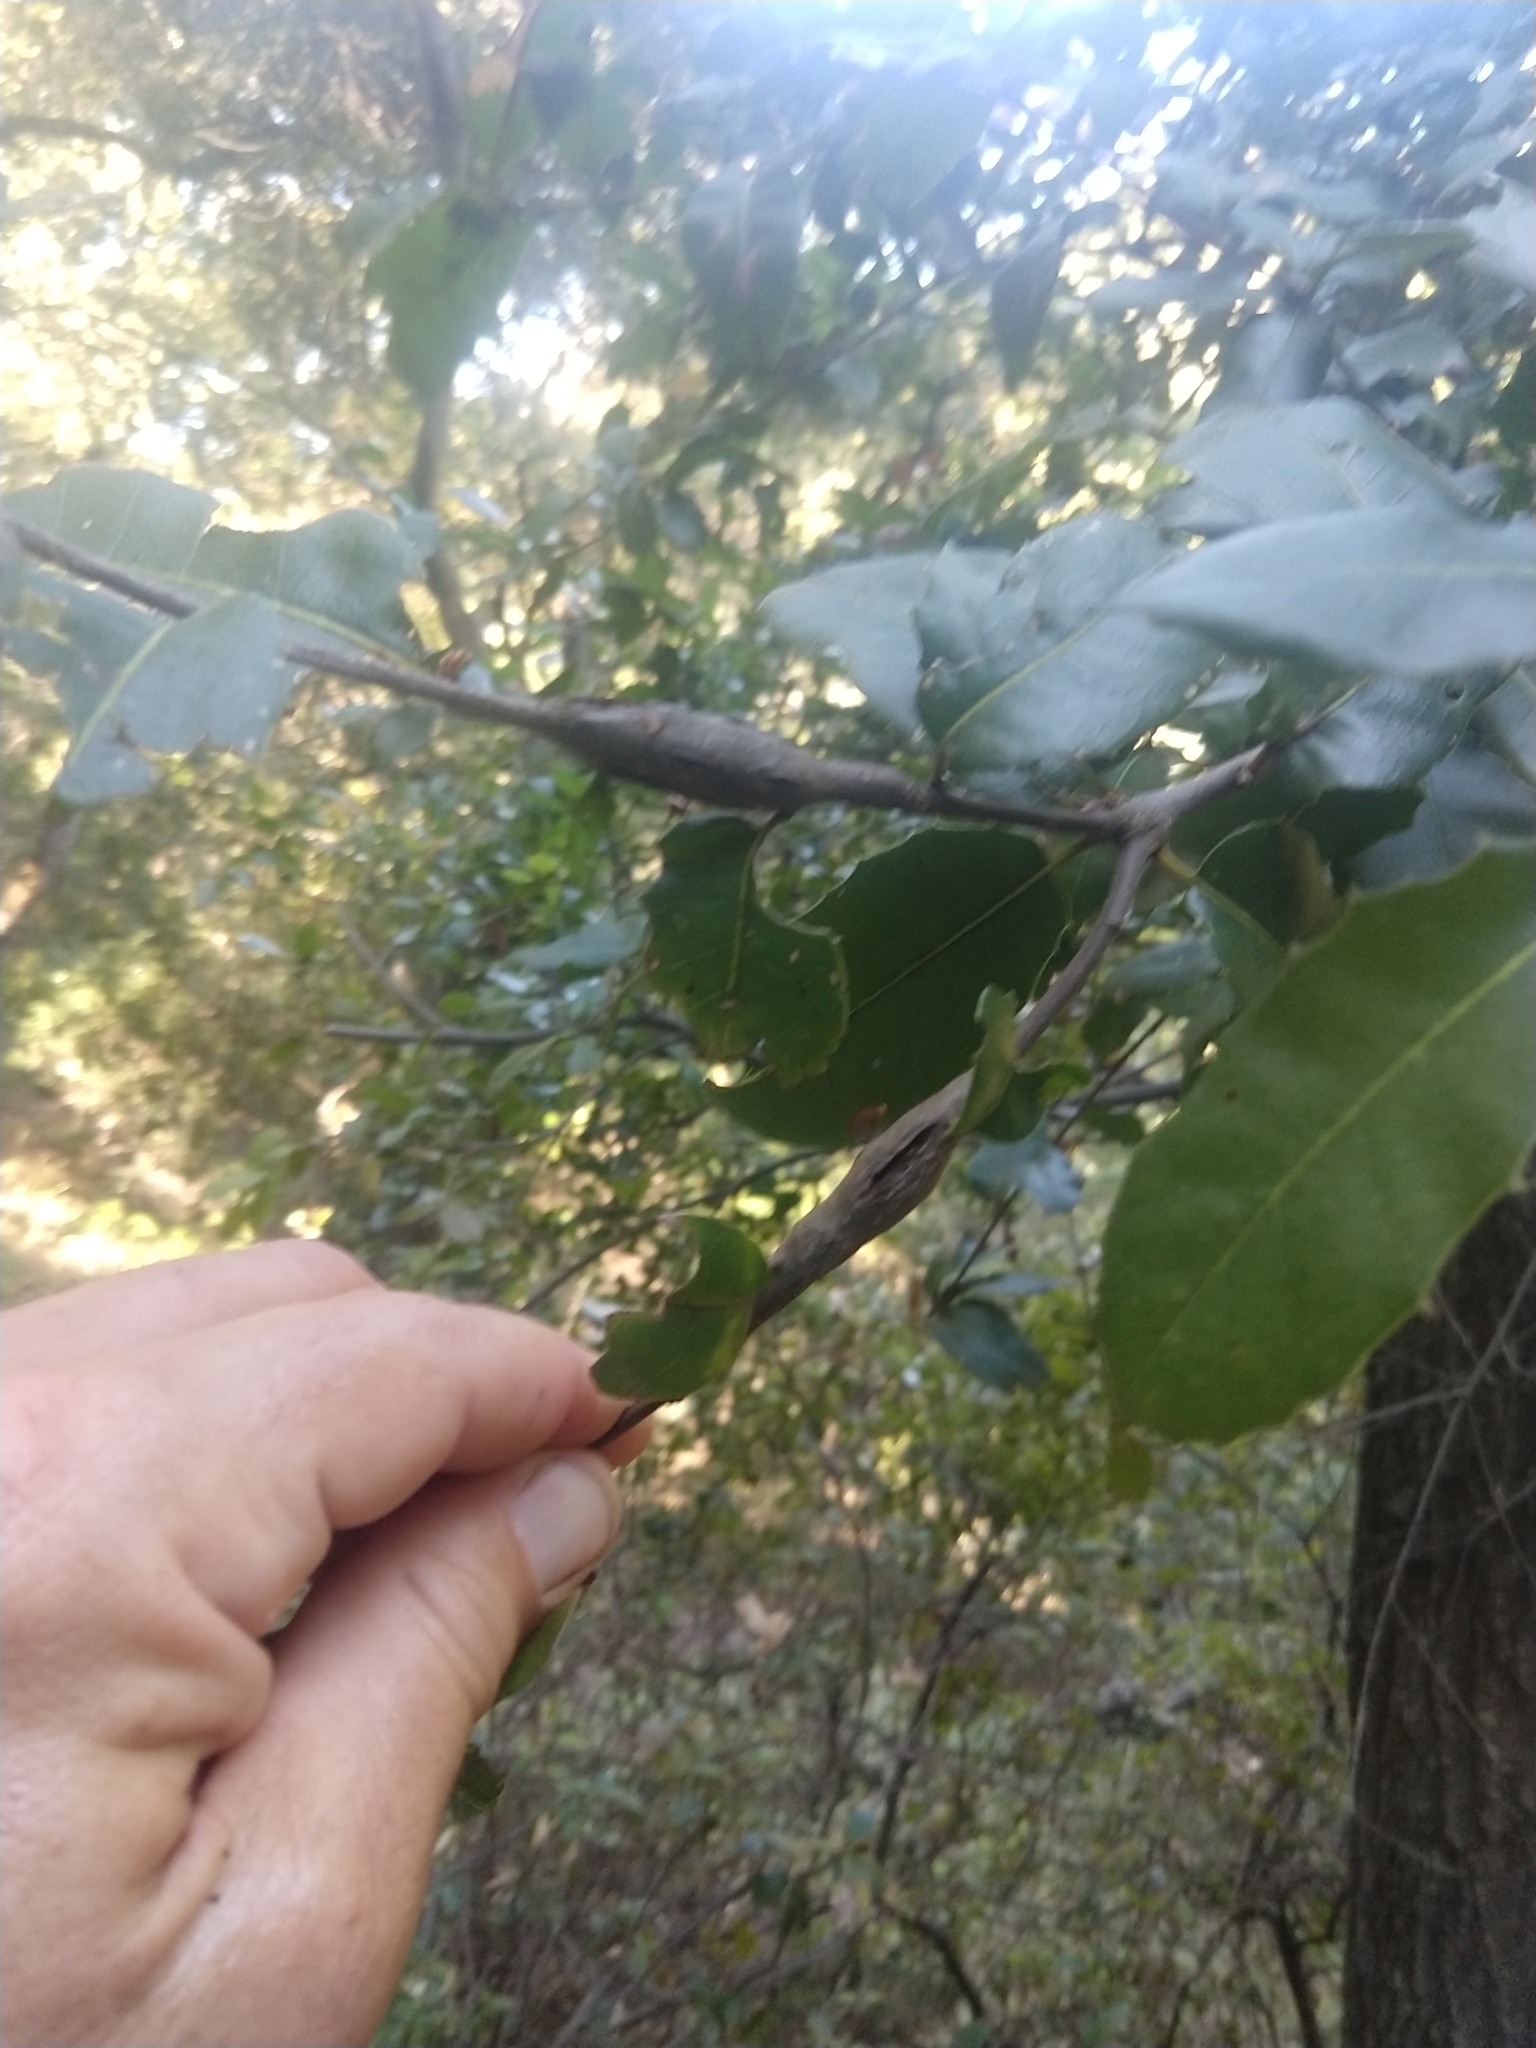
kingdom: Animalia
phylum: Arthropoda
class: Insecta
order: Hymenoptera
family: Cynipidae
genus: Callirhytis
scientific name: Callirhytis
